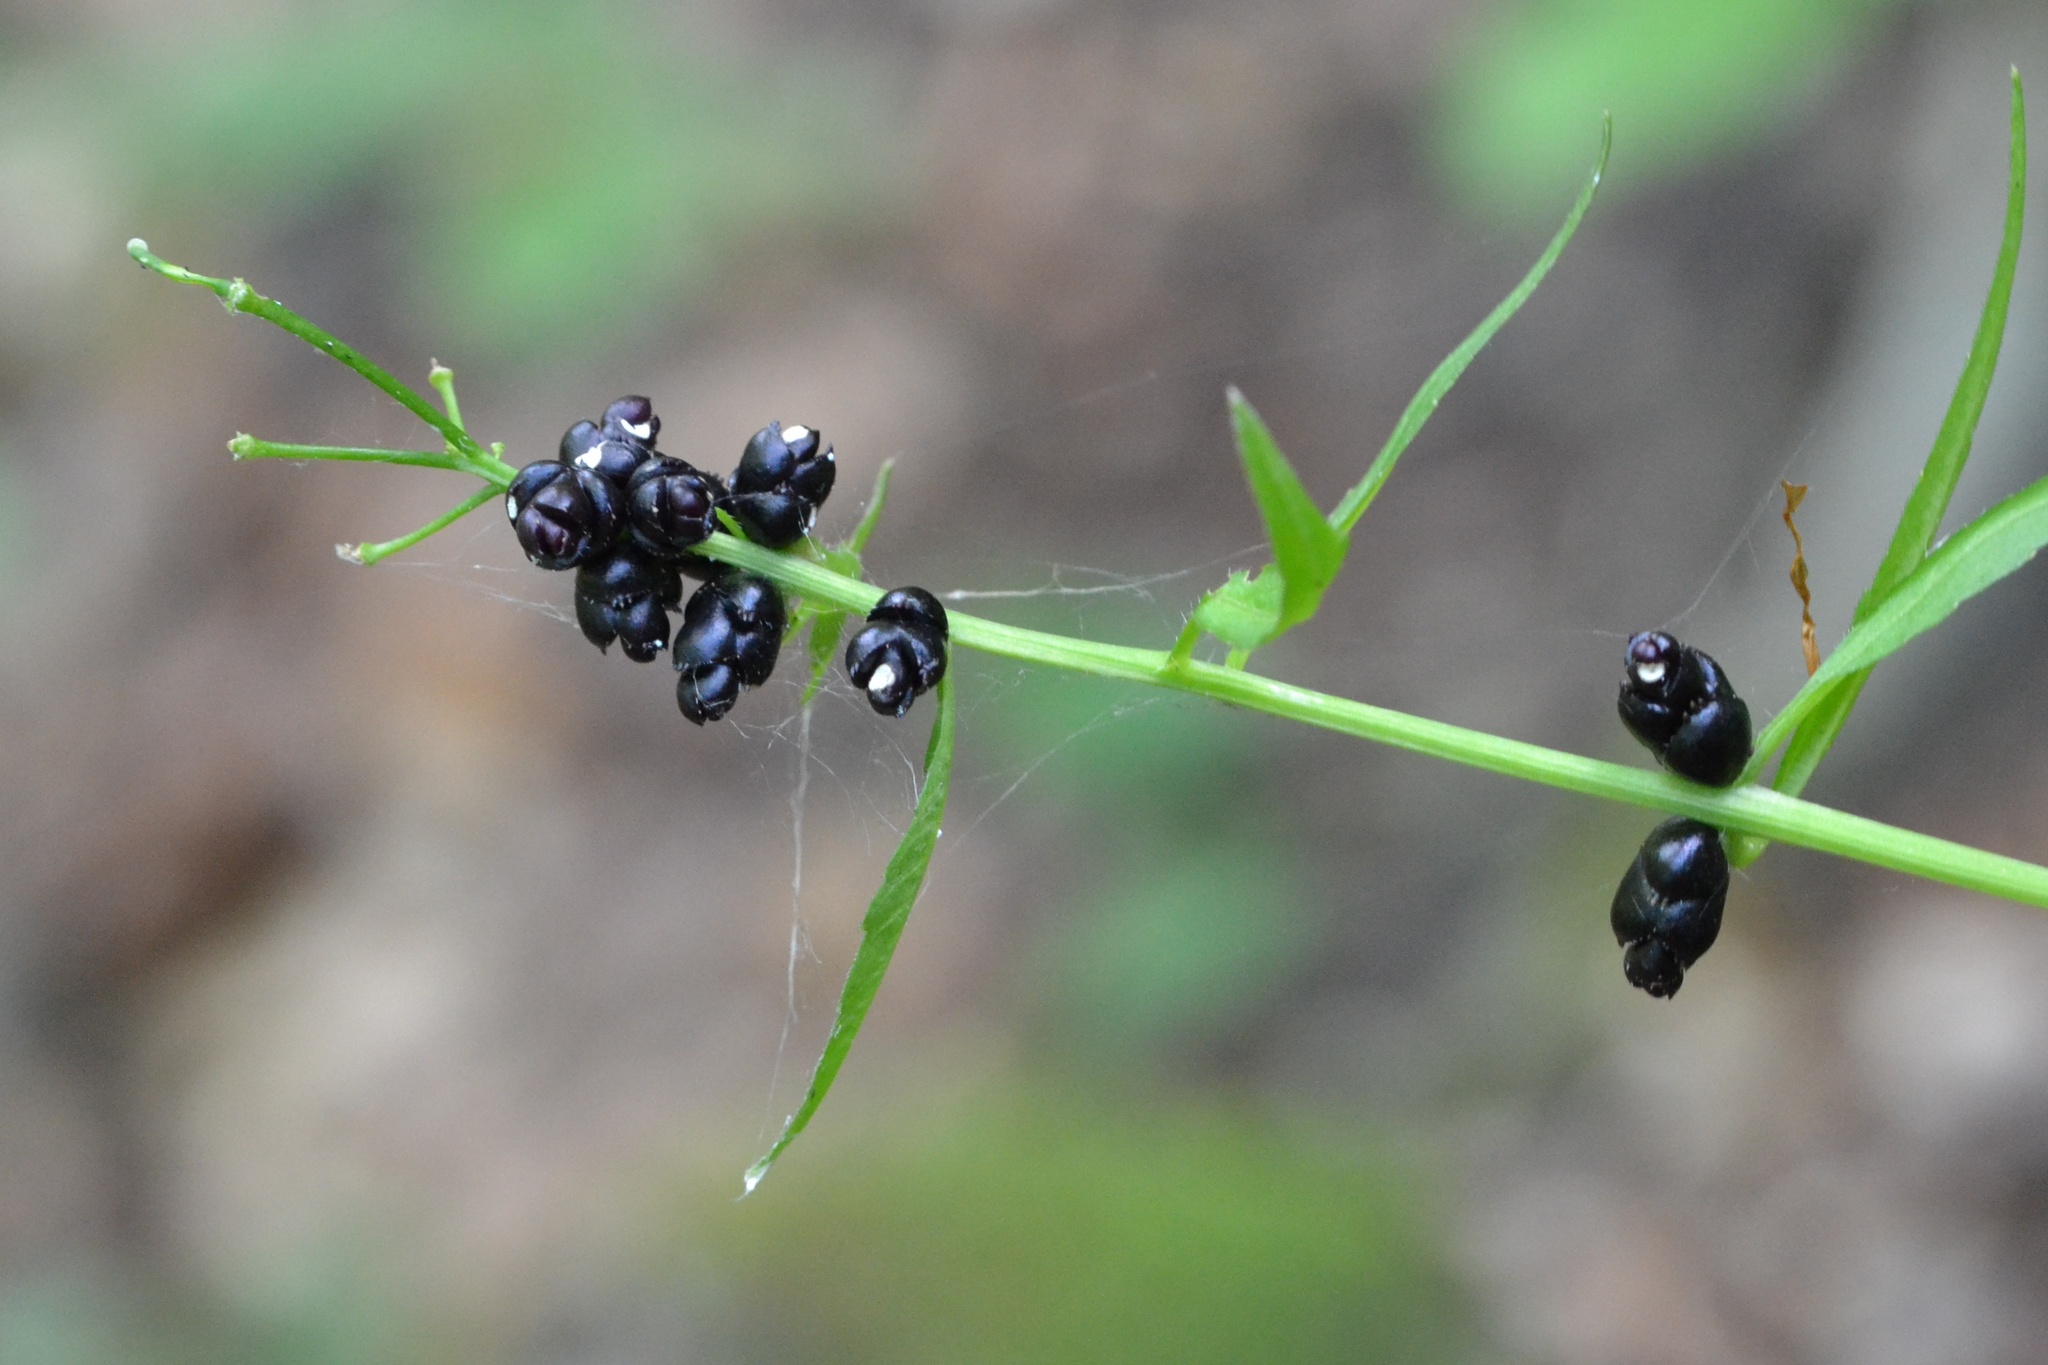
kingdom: Plantae
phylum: Tracheophyta
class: Magnoliopsida
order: Brassicales
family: Brassicaceae
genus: Cardamine
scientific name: Cardamine bulbifera
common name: Coralroot bittercress
